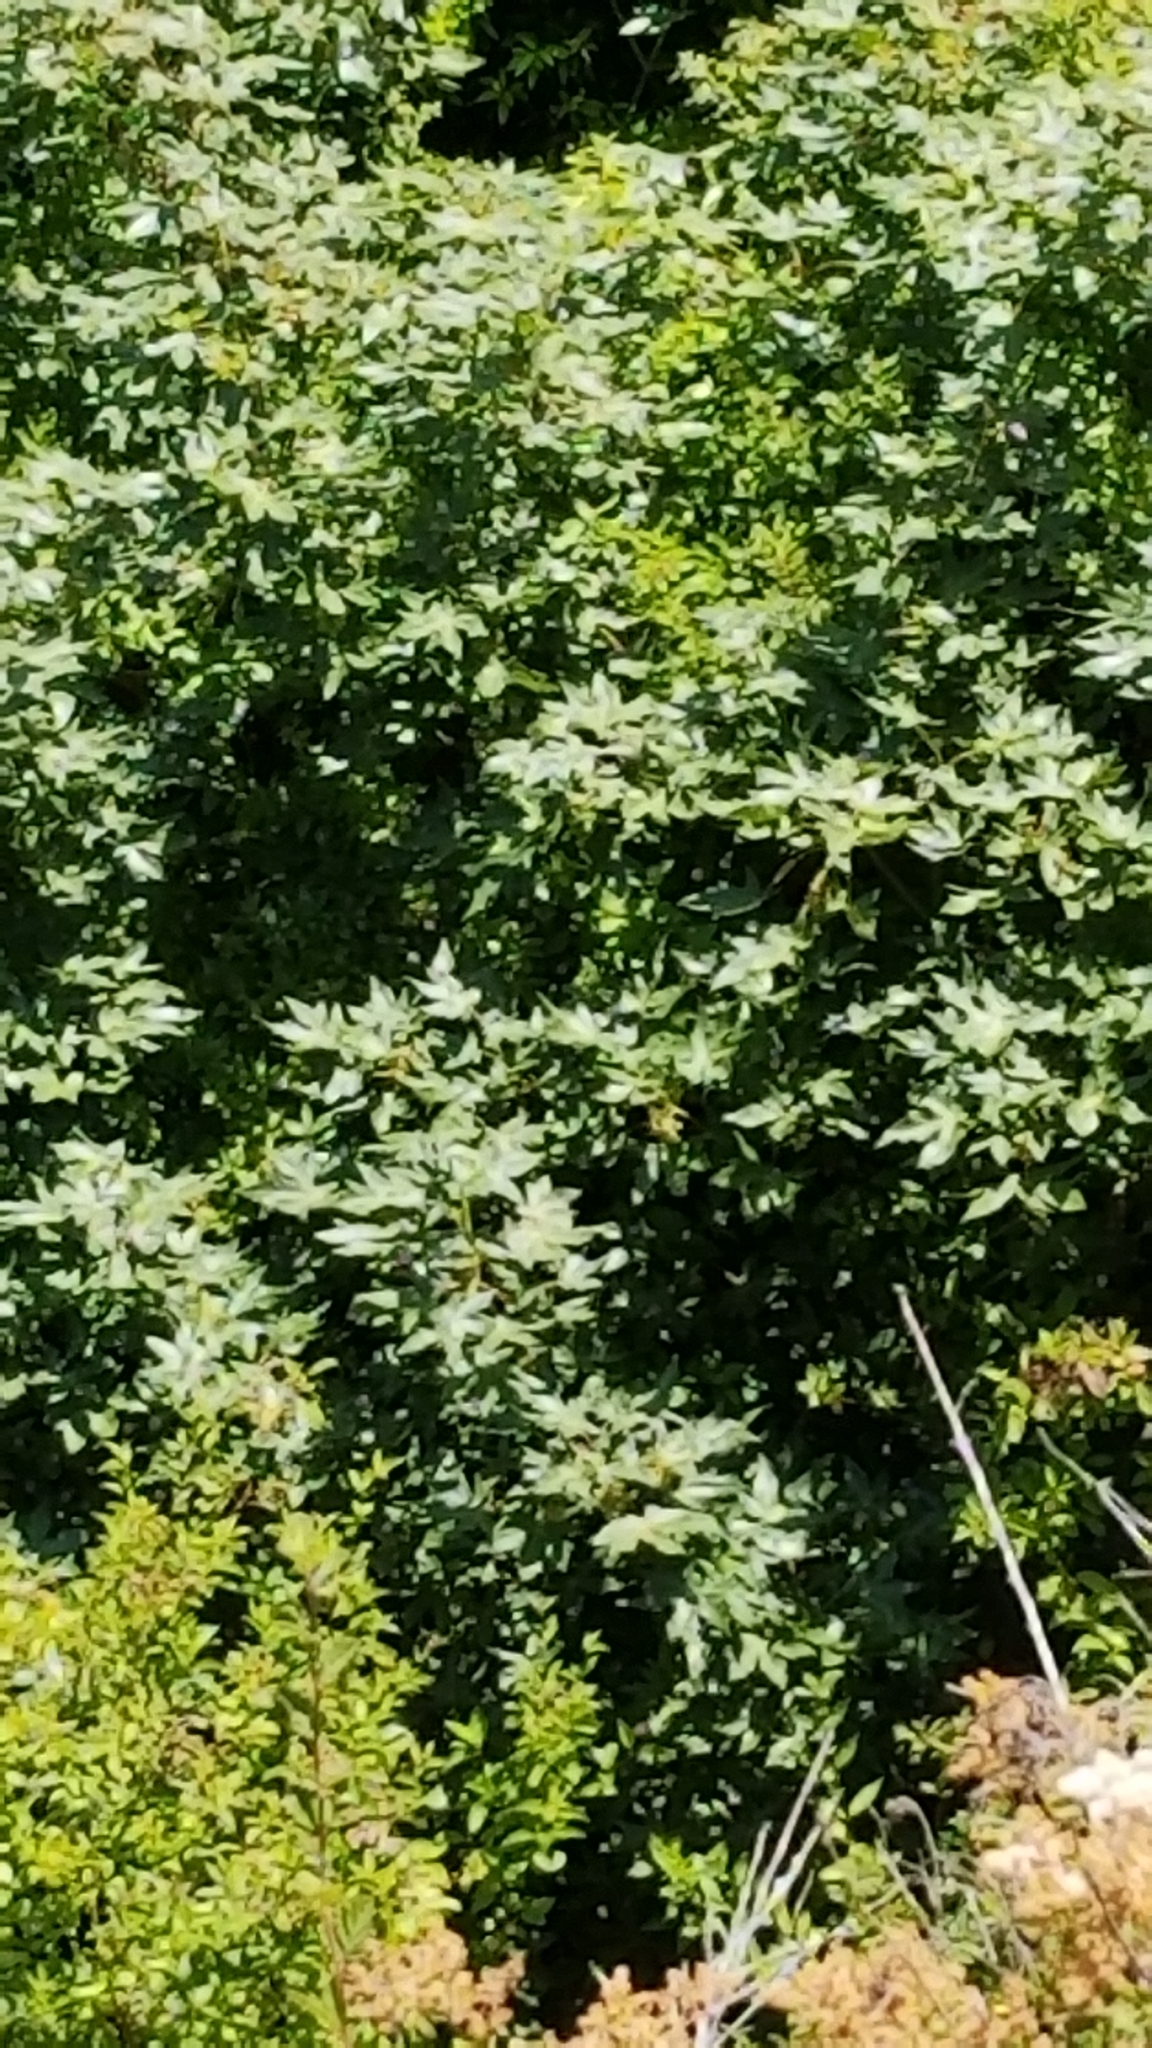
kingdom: Plantae
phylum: Tracheophyta
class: Magnoliopsida
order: Sapindales
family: Sapindaceae
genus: Acer
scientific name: Acer macrophyllum
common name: Oregon maple
